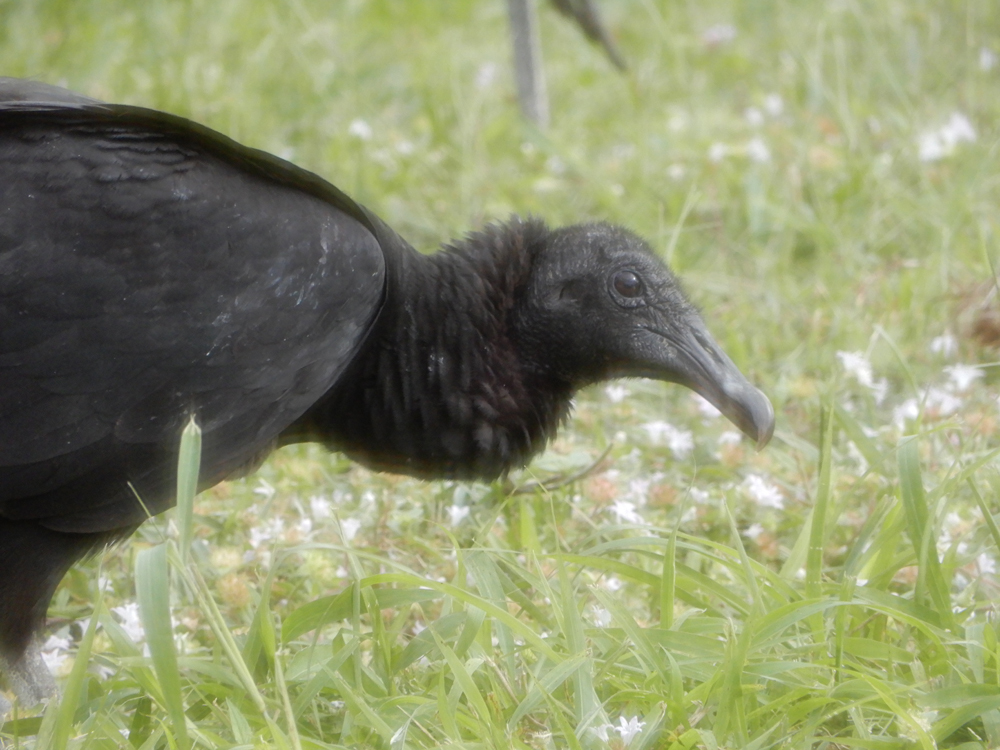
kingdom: Animalia
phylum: Chordata
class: Aves
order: Accipitriformes
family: Cathartidae
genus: Coragyps
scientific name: Coragyps atratus
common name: Black vulture
